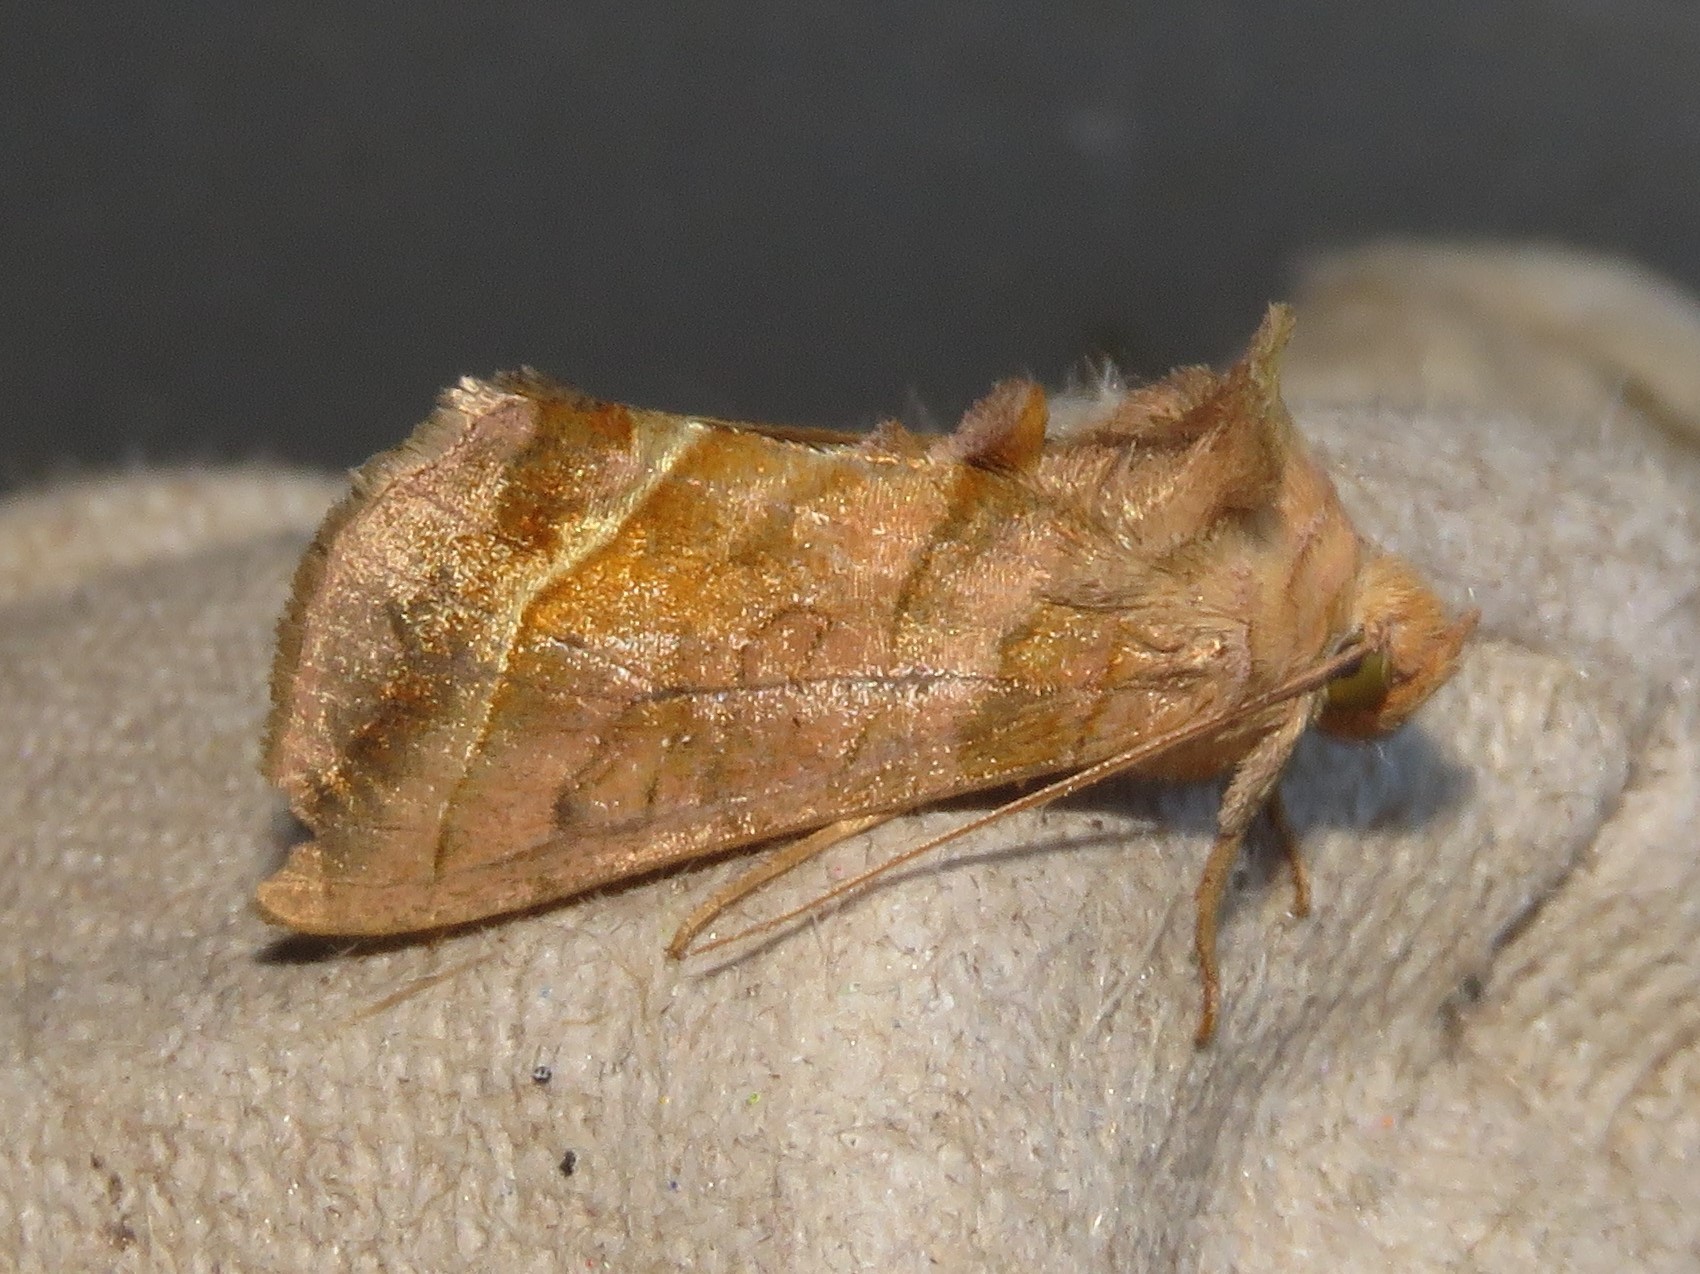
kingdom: Animalia
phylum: Arthropoda
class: Insecta
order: Lepidoptera
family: Noctuidae
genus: Diachrysia
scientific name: Diachrysia aereoides
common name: Dark-spotted looper moth
